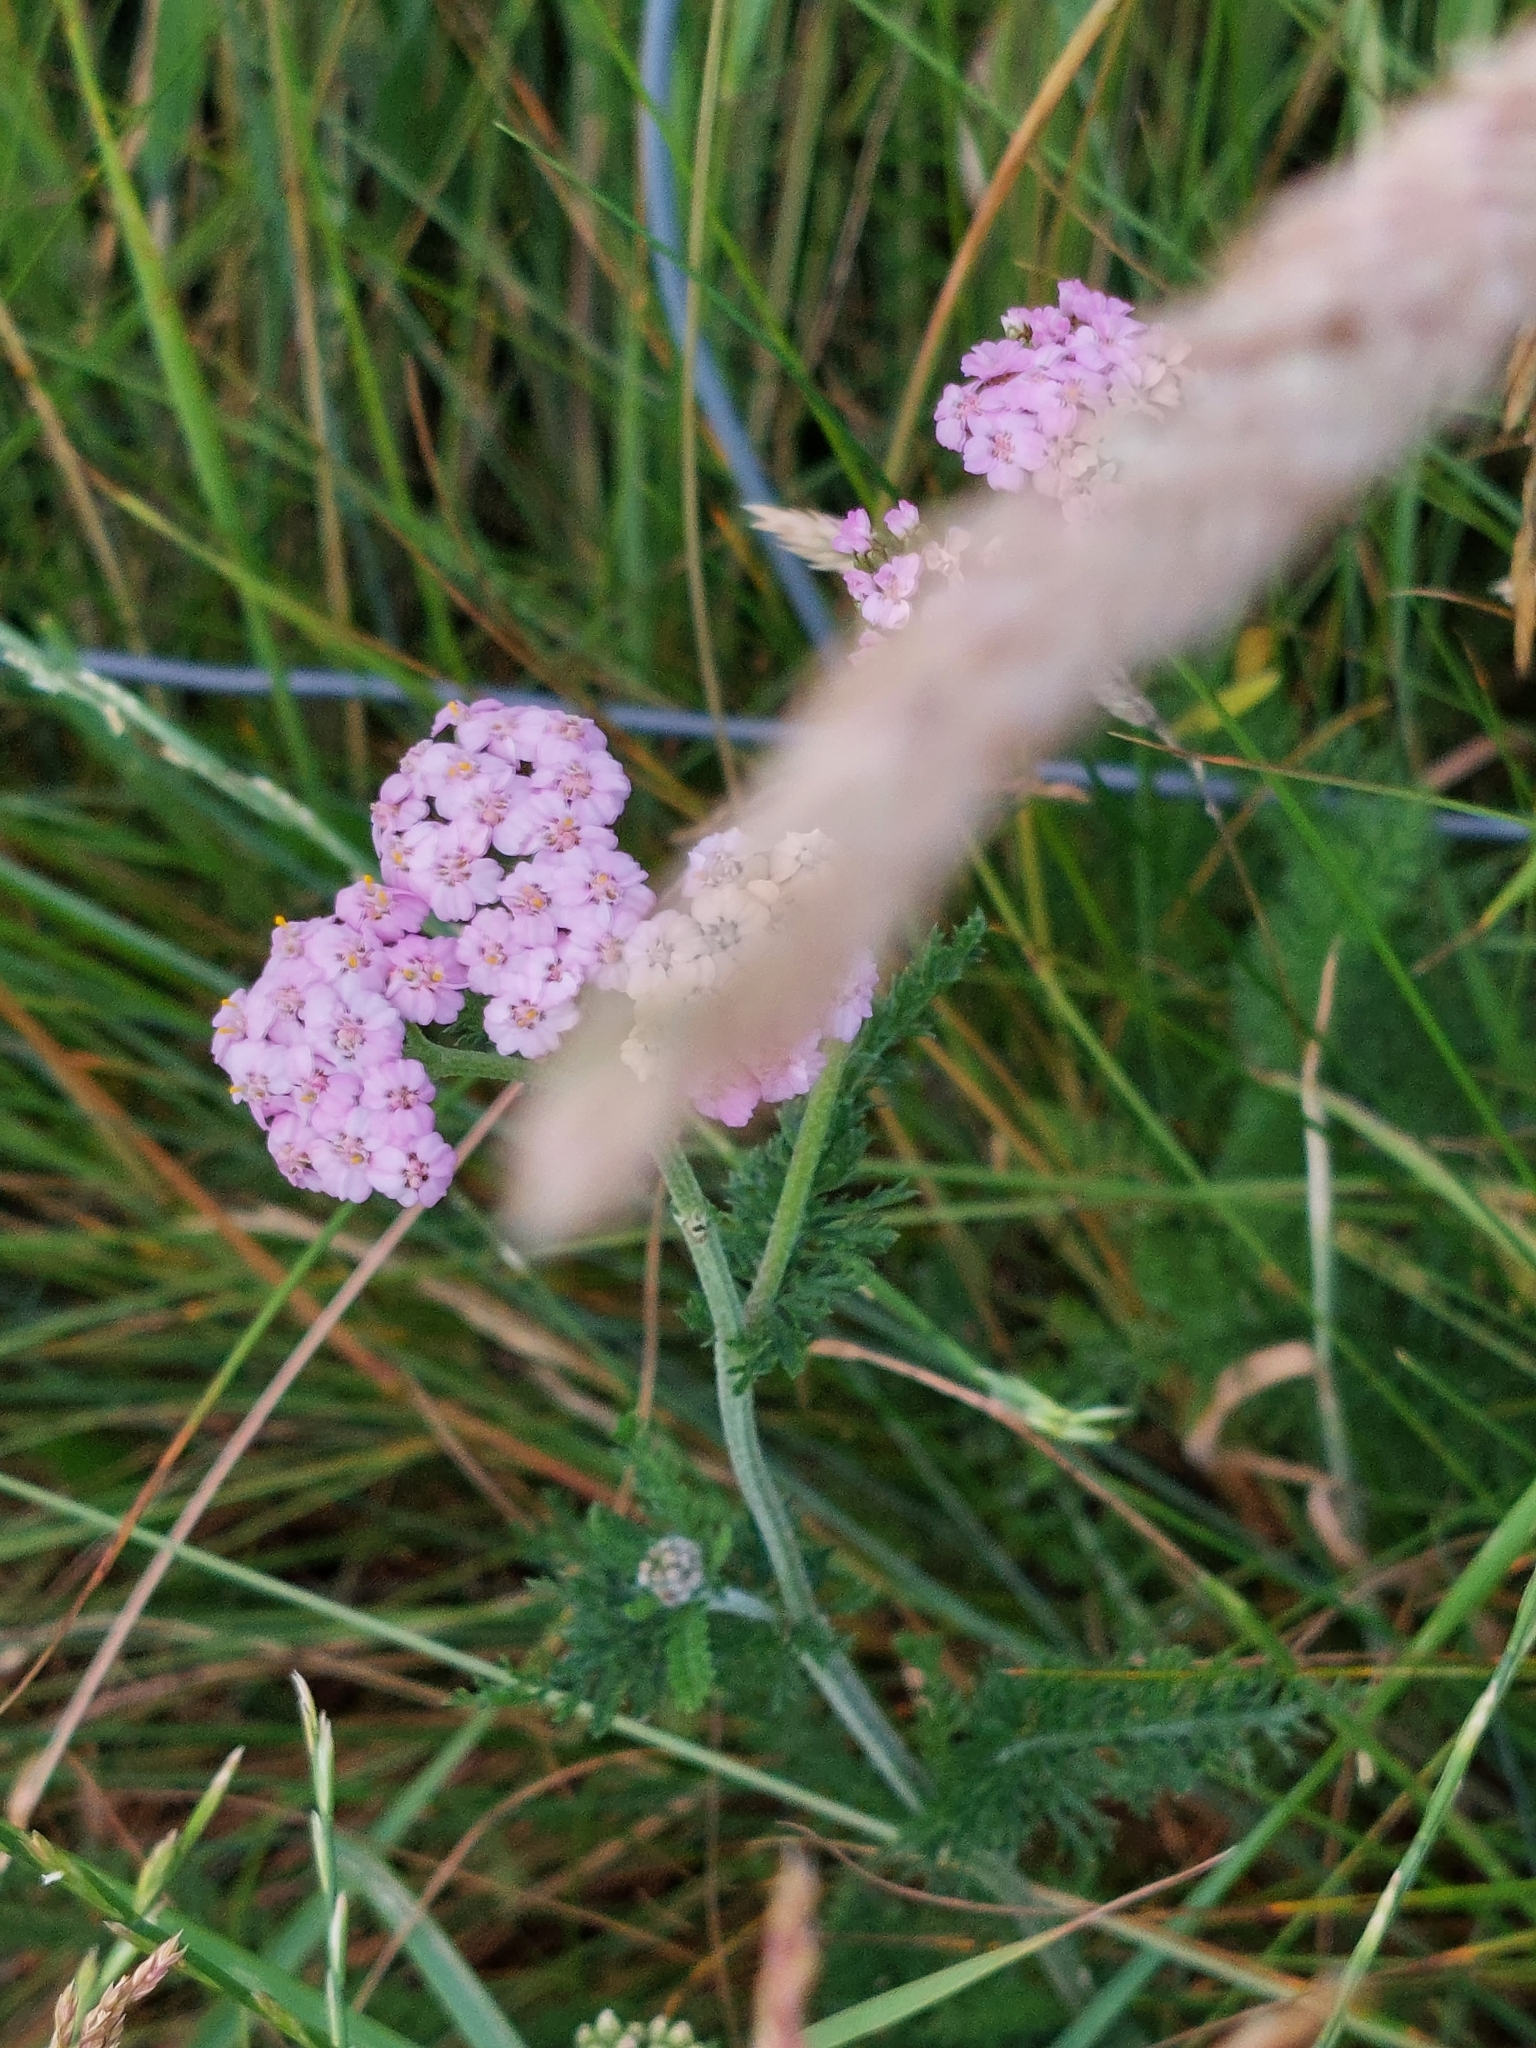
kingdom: Plantae
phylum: Tracheophyta
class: Magnoliopsida
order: Asterales
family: Asteraceae
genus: Achillea
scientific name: Achillea millefolium
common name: Yarrow
